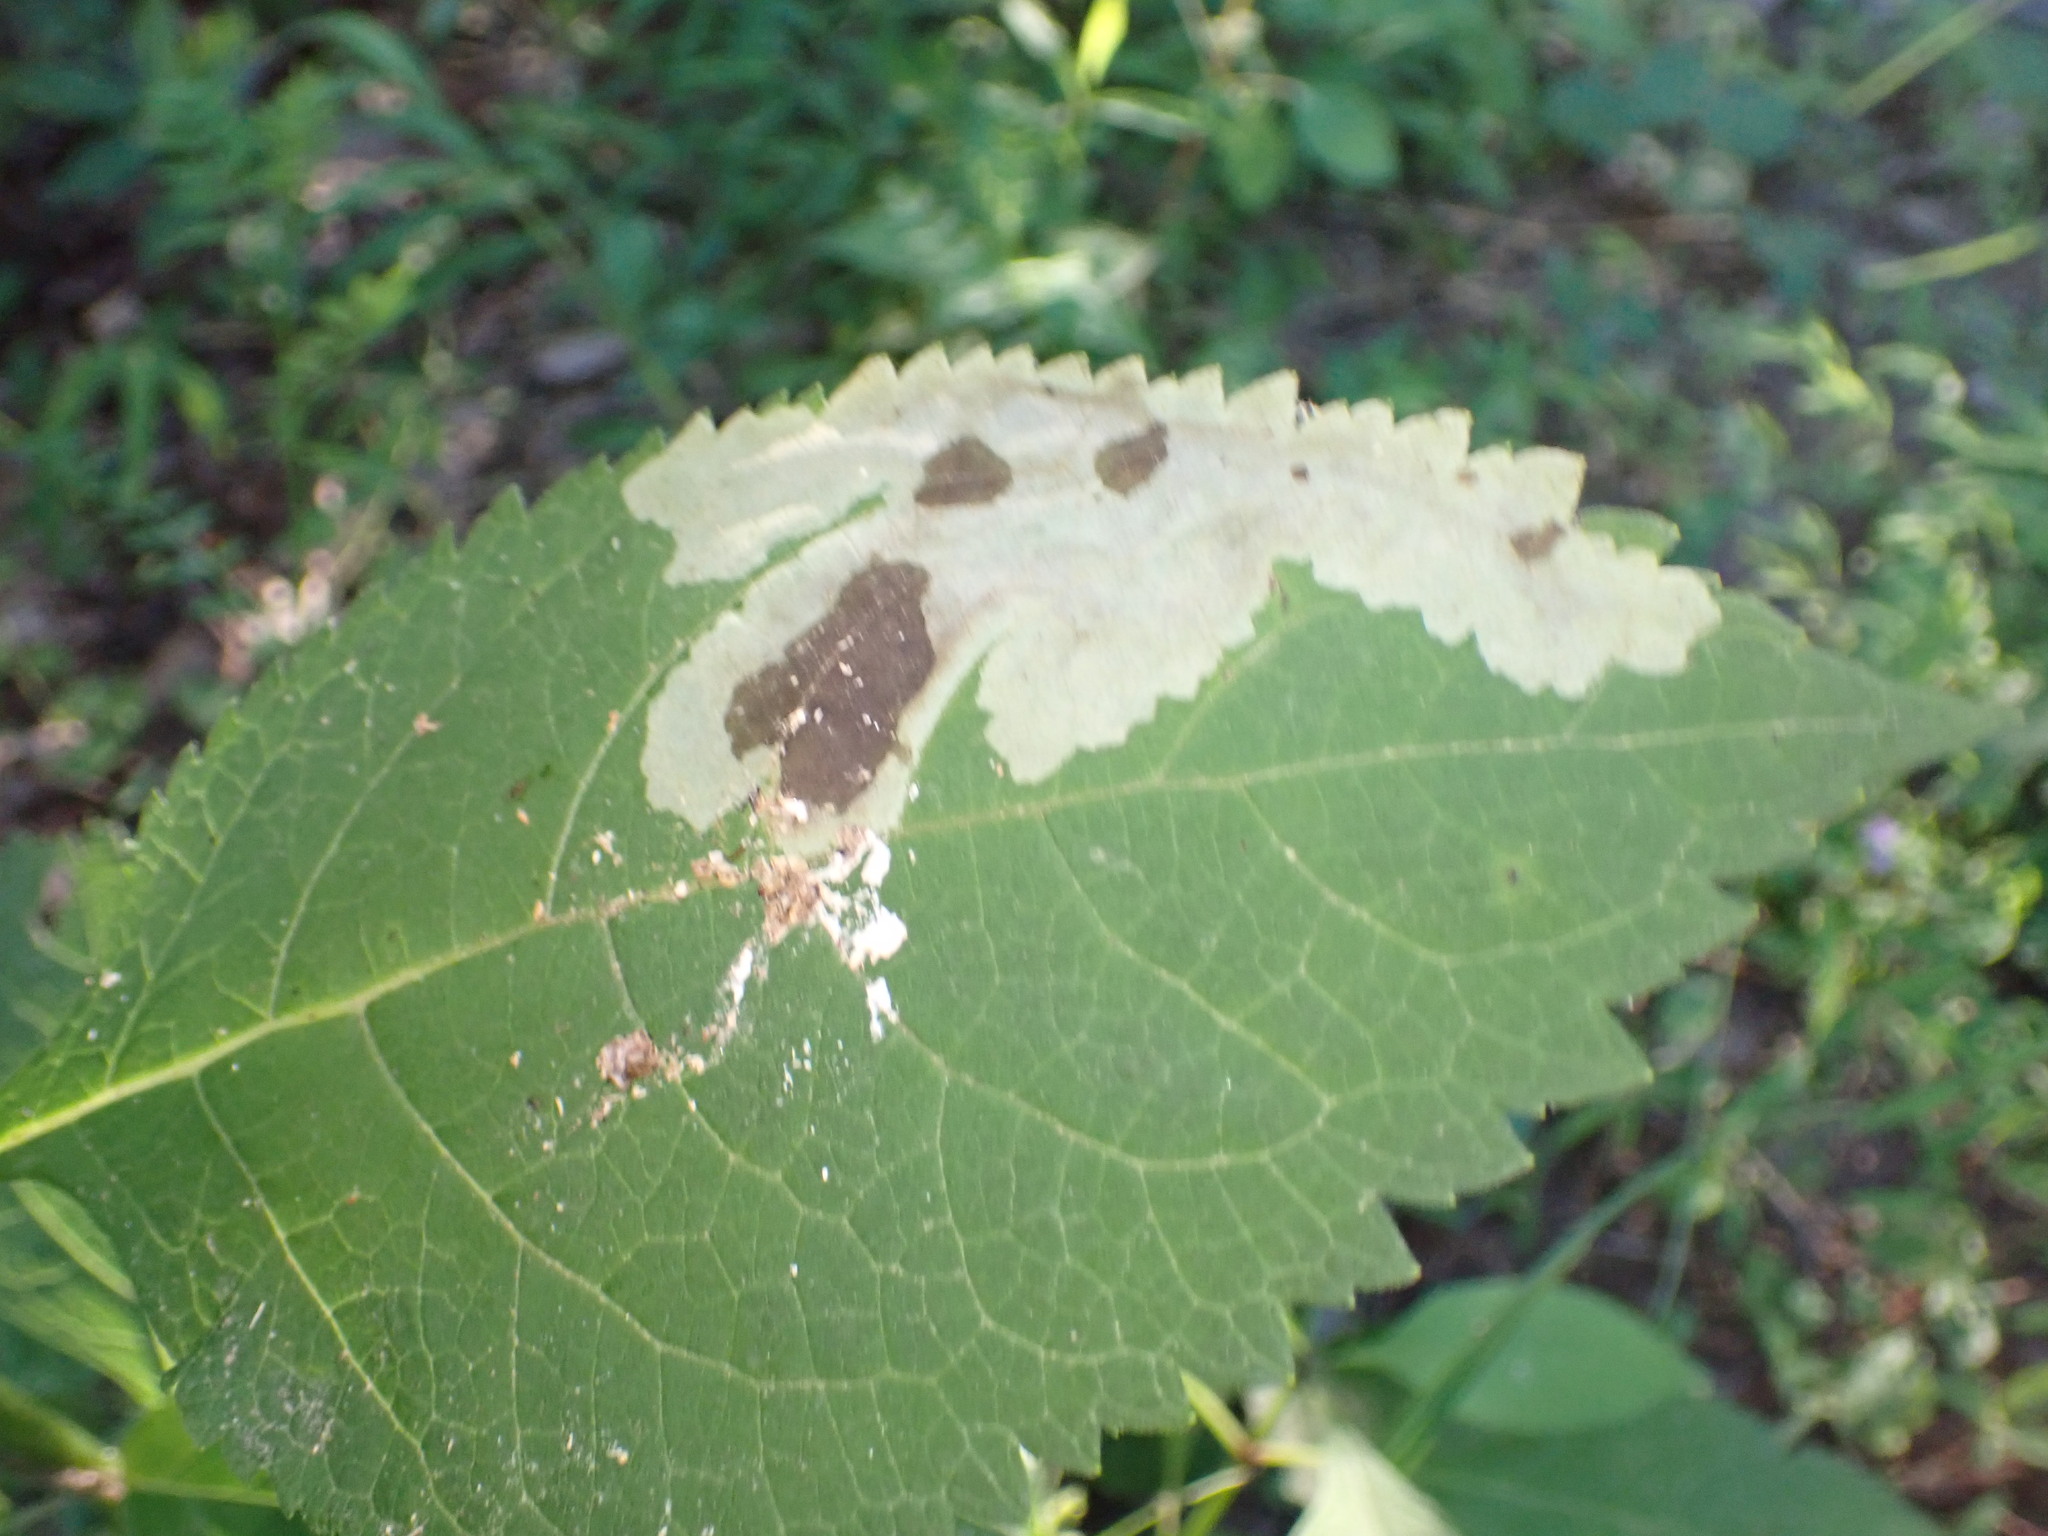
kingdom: Animalia
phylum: Arthropoda
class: Insecta
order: Diptera
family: Agromyzidae
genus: Calycomyza
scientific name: Calycomyza flavinotum
